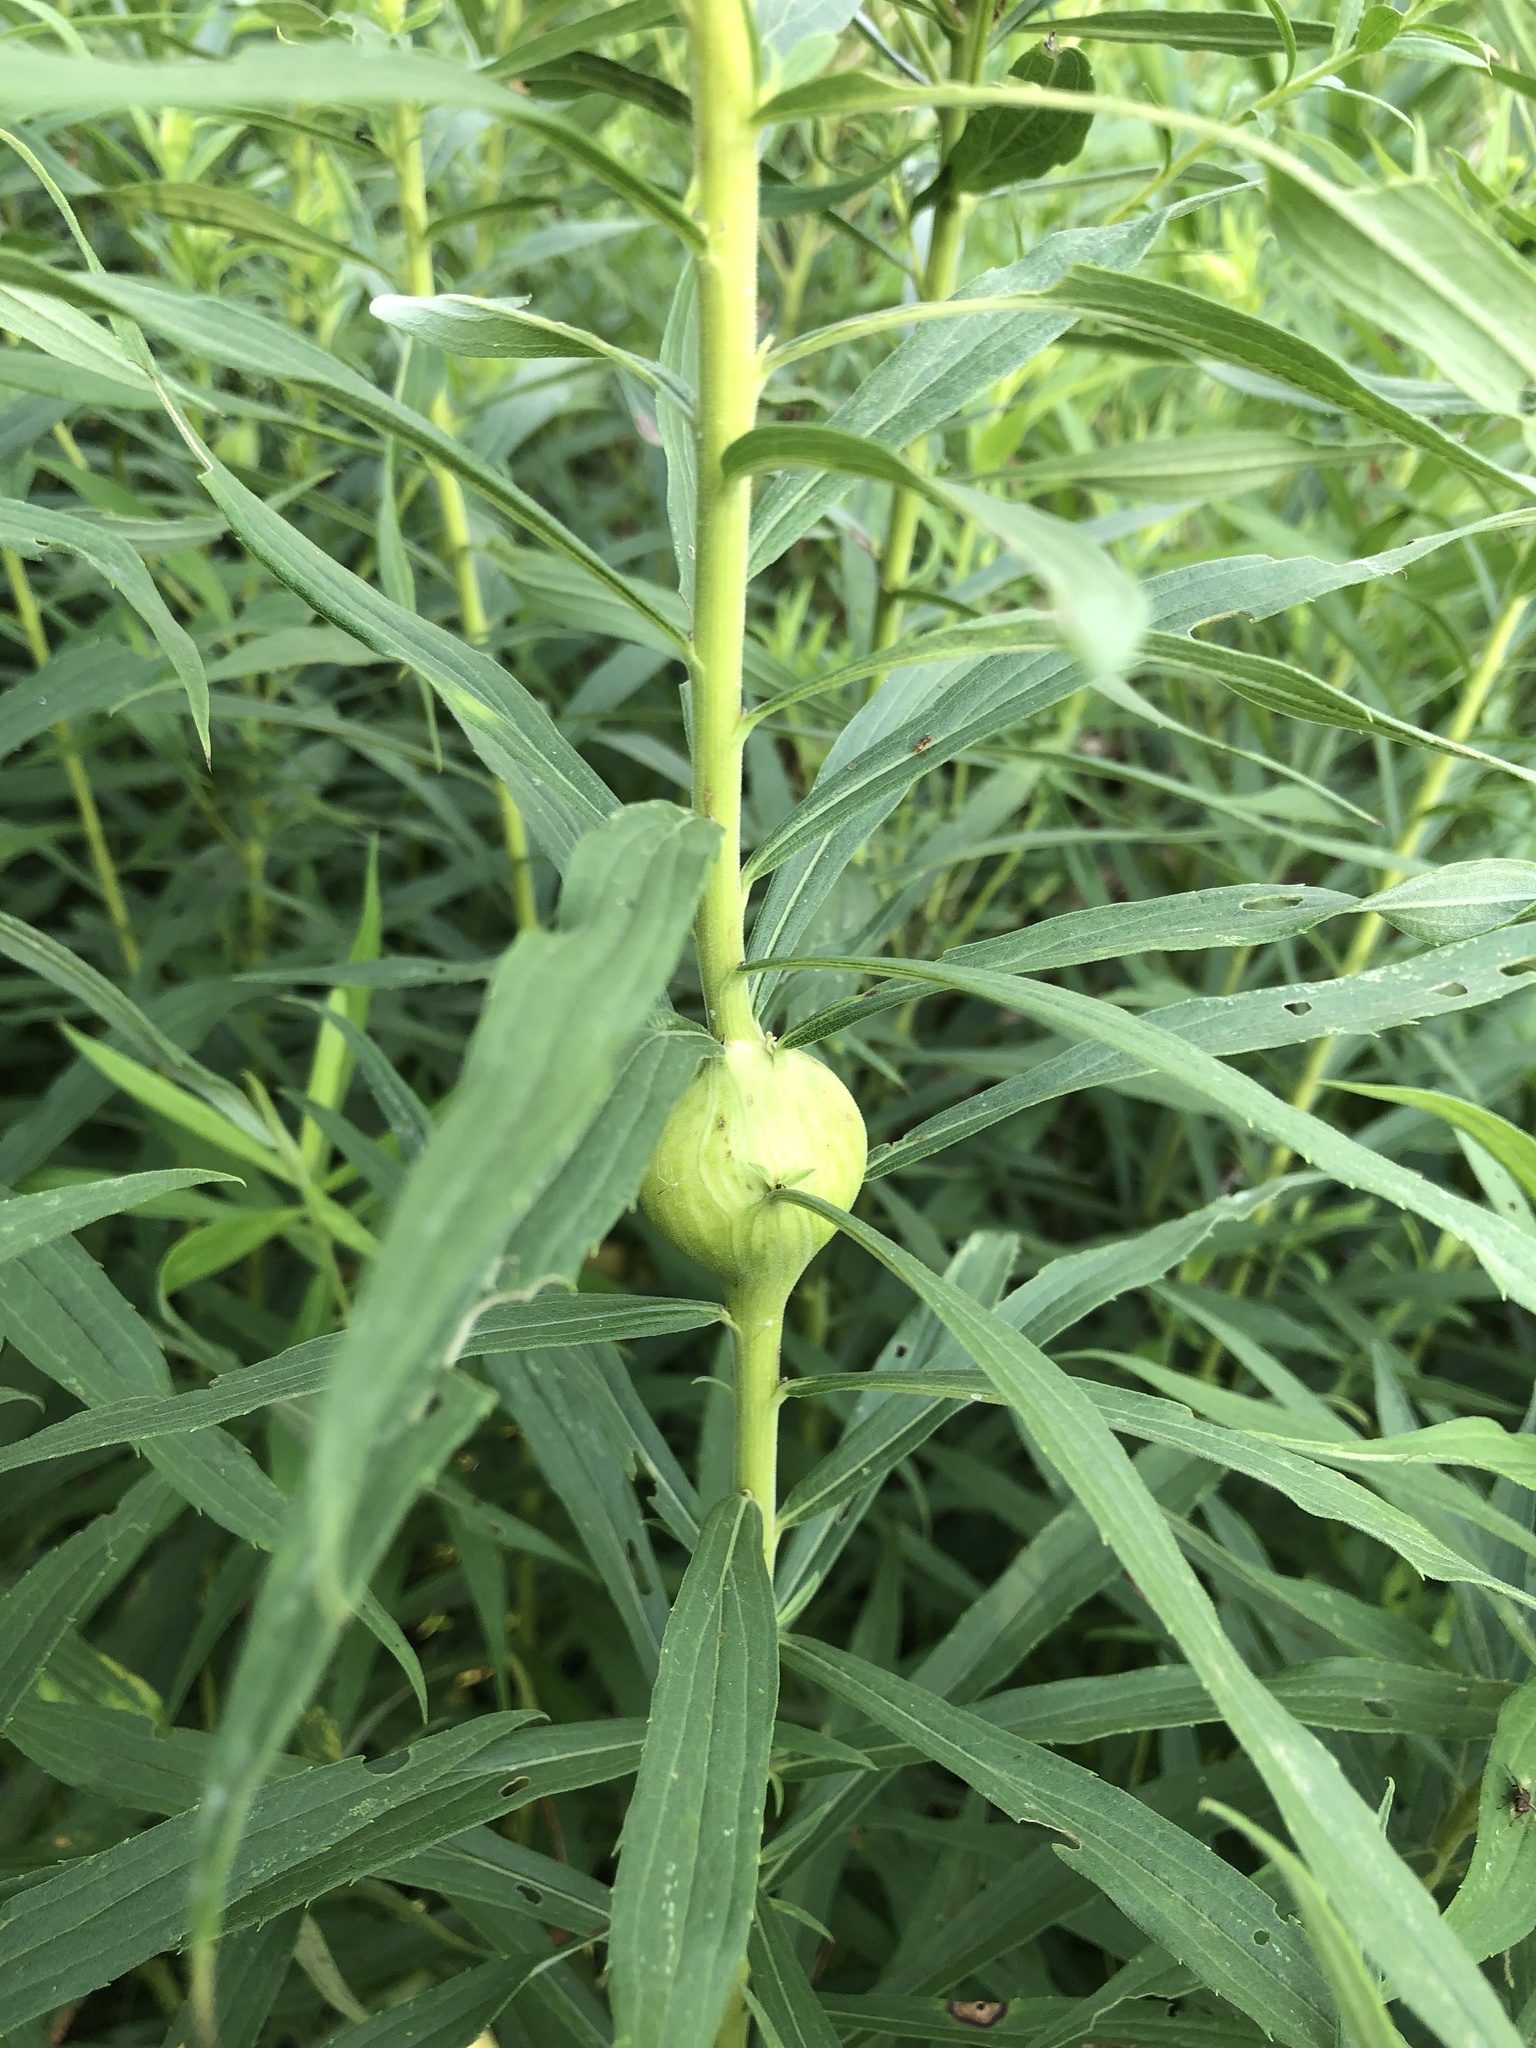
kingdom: Animalia
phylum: Arthropoda
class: Insecta
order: Diptera
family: Tephritidae
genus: Eurosta
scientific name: Eurosta solidaginis
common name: Goldenrod gall fly
